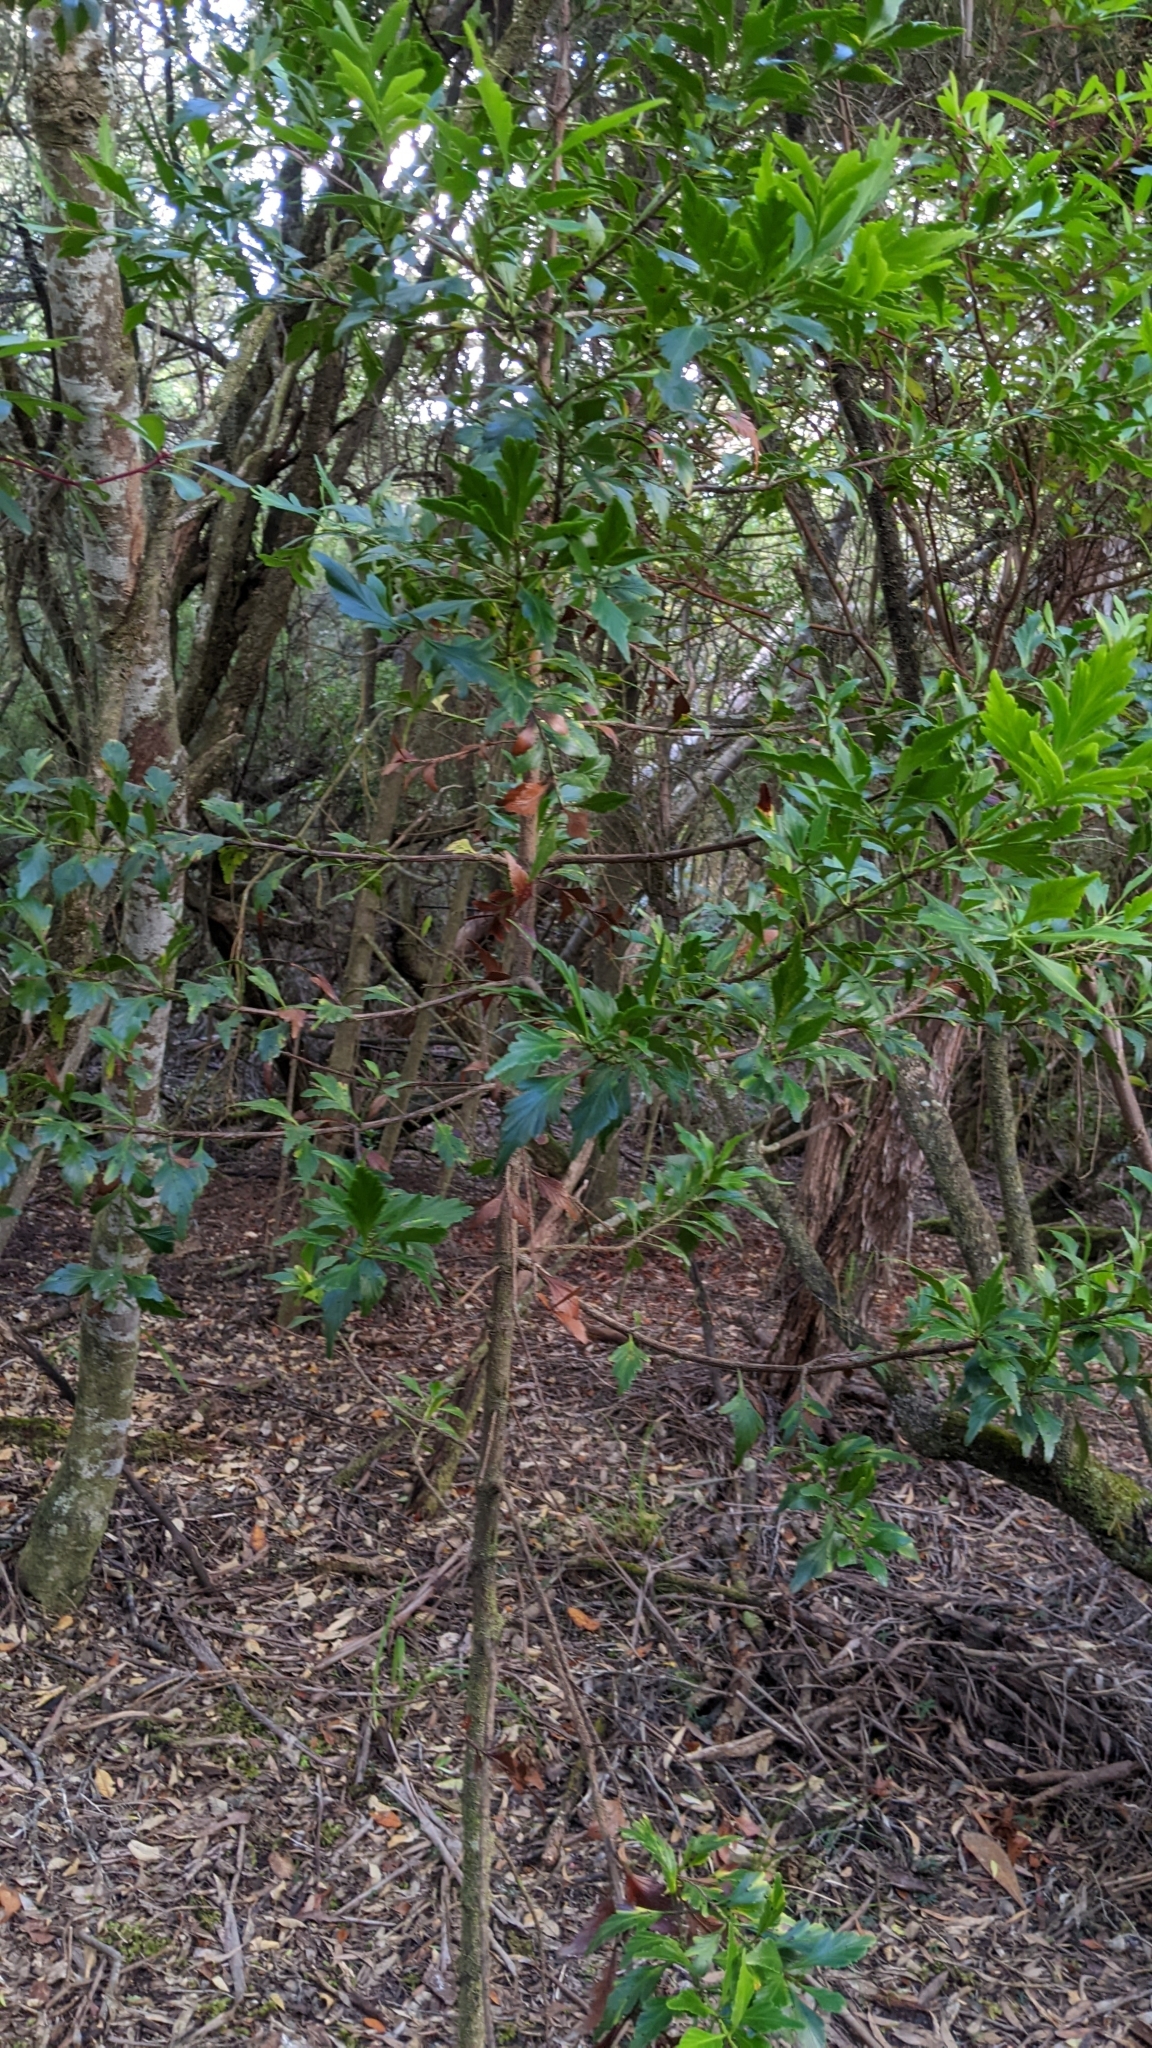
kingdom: Plantae
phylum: Tracheophyta
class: Pinopsida
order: Pinales
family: Phyllocladaceae
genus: Phyllocladus
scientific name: Phyllocladus aspleniifolius
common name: Celery-top pine
